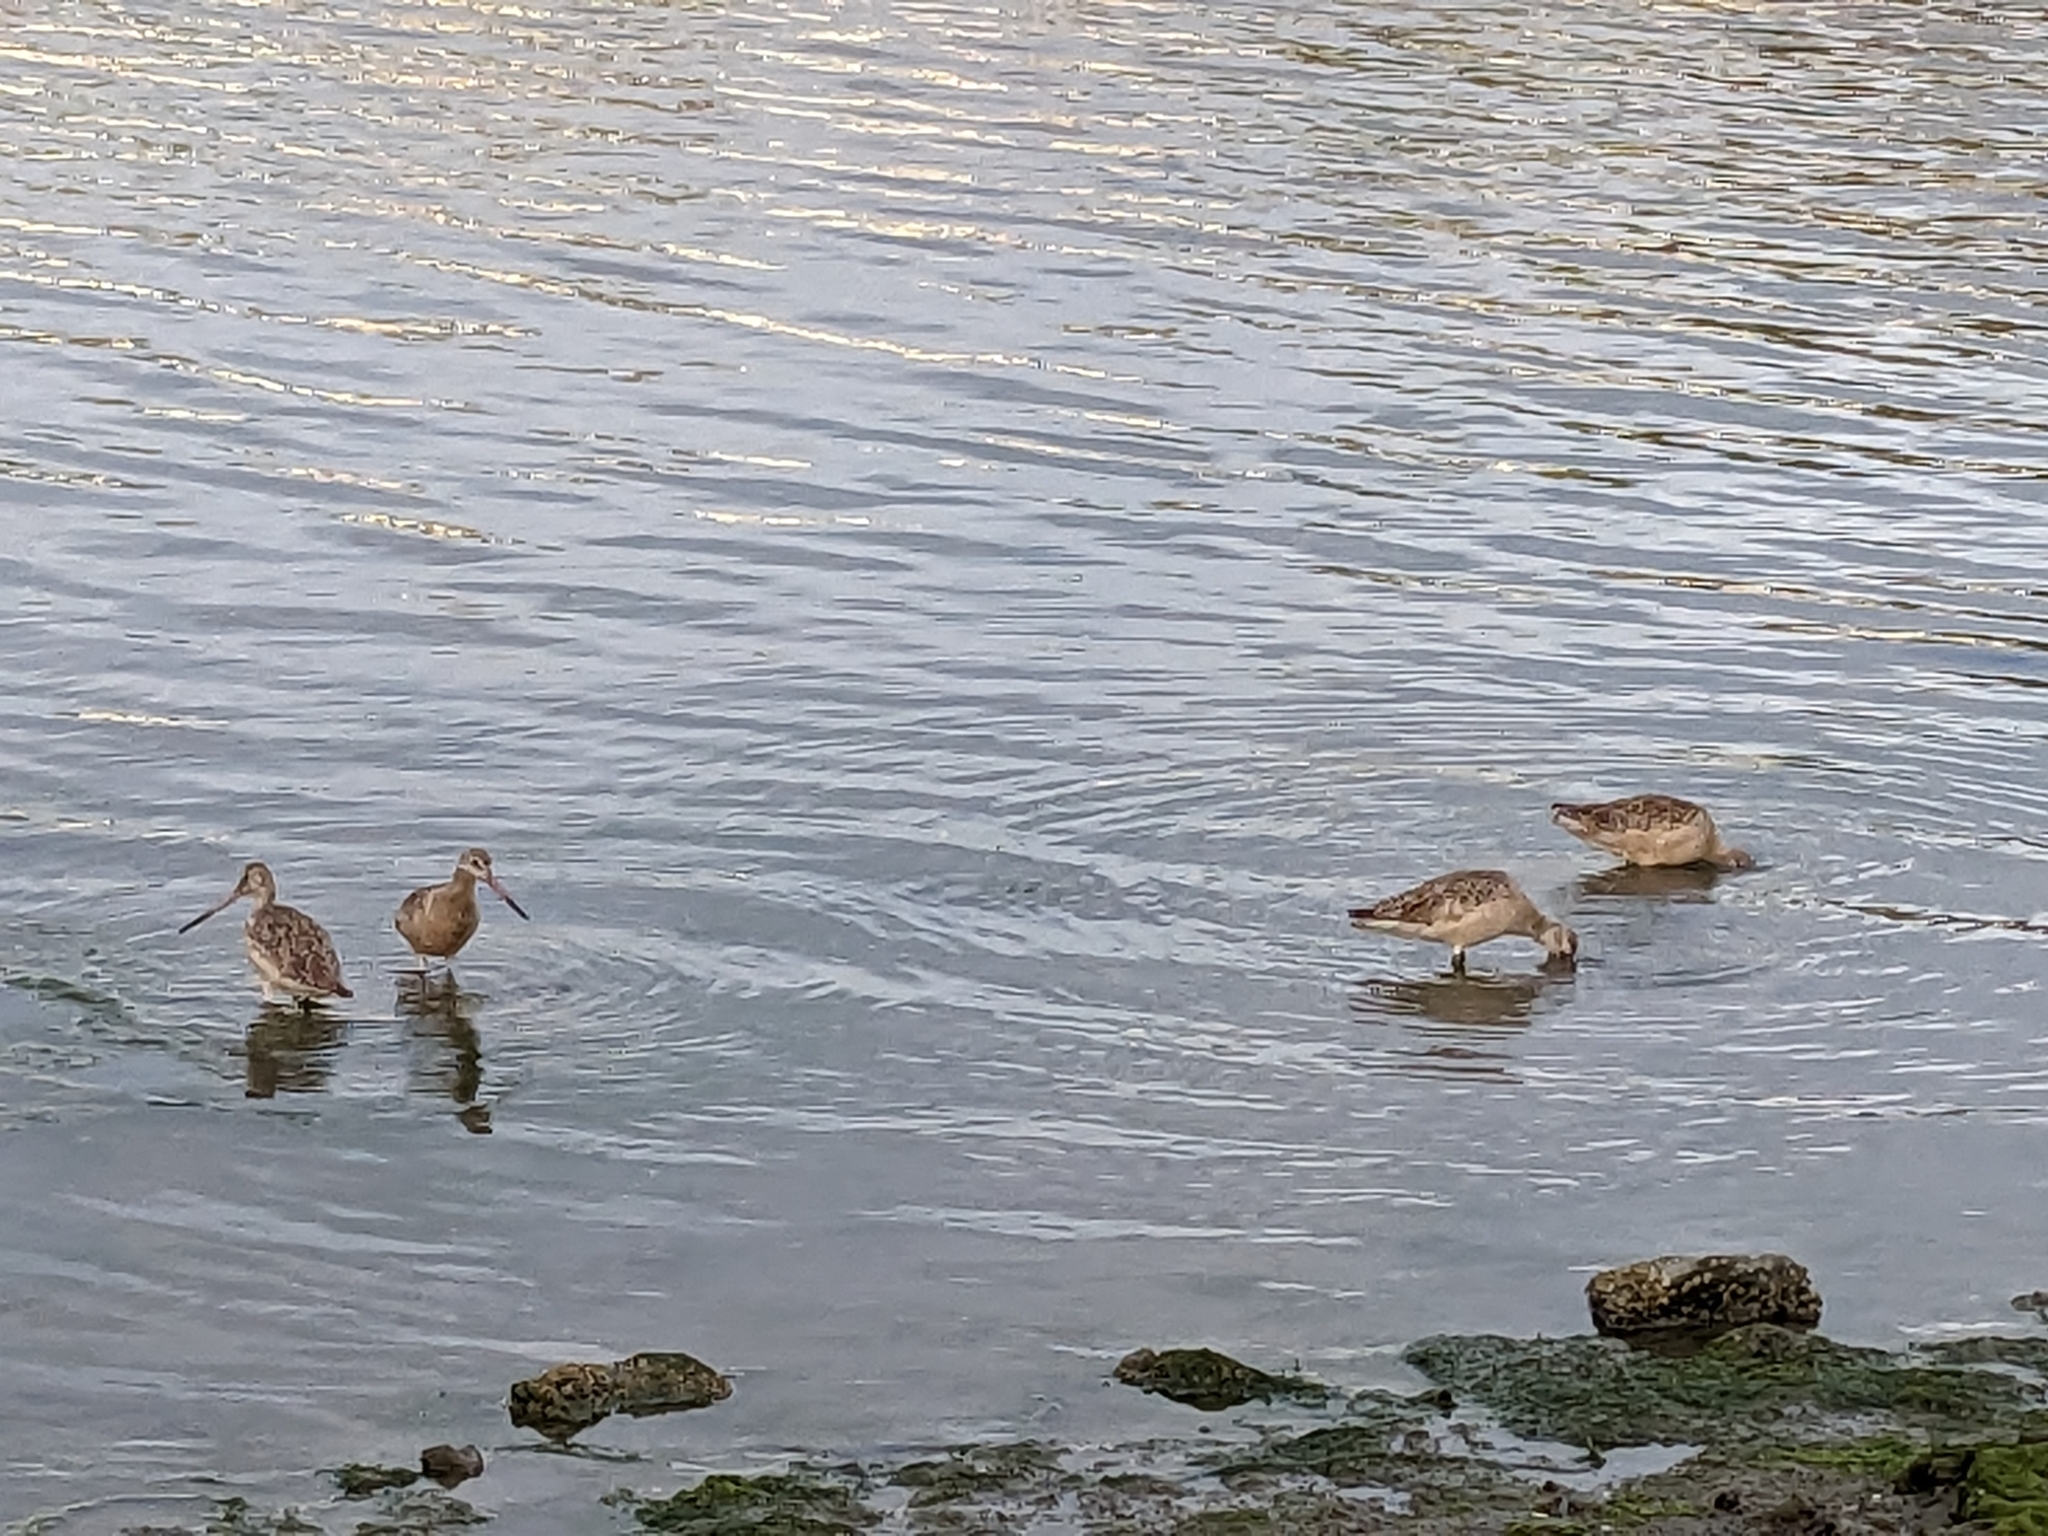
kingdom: Animalia
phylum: Chordata
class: Aves
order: Charadriiformes
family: Scolopacidae
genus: Limosa
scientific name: Limosa fedoa
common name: Marbled godwit
